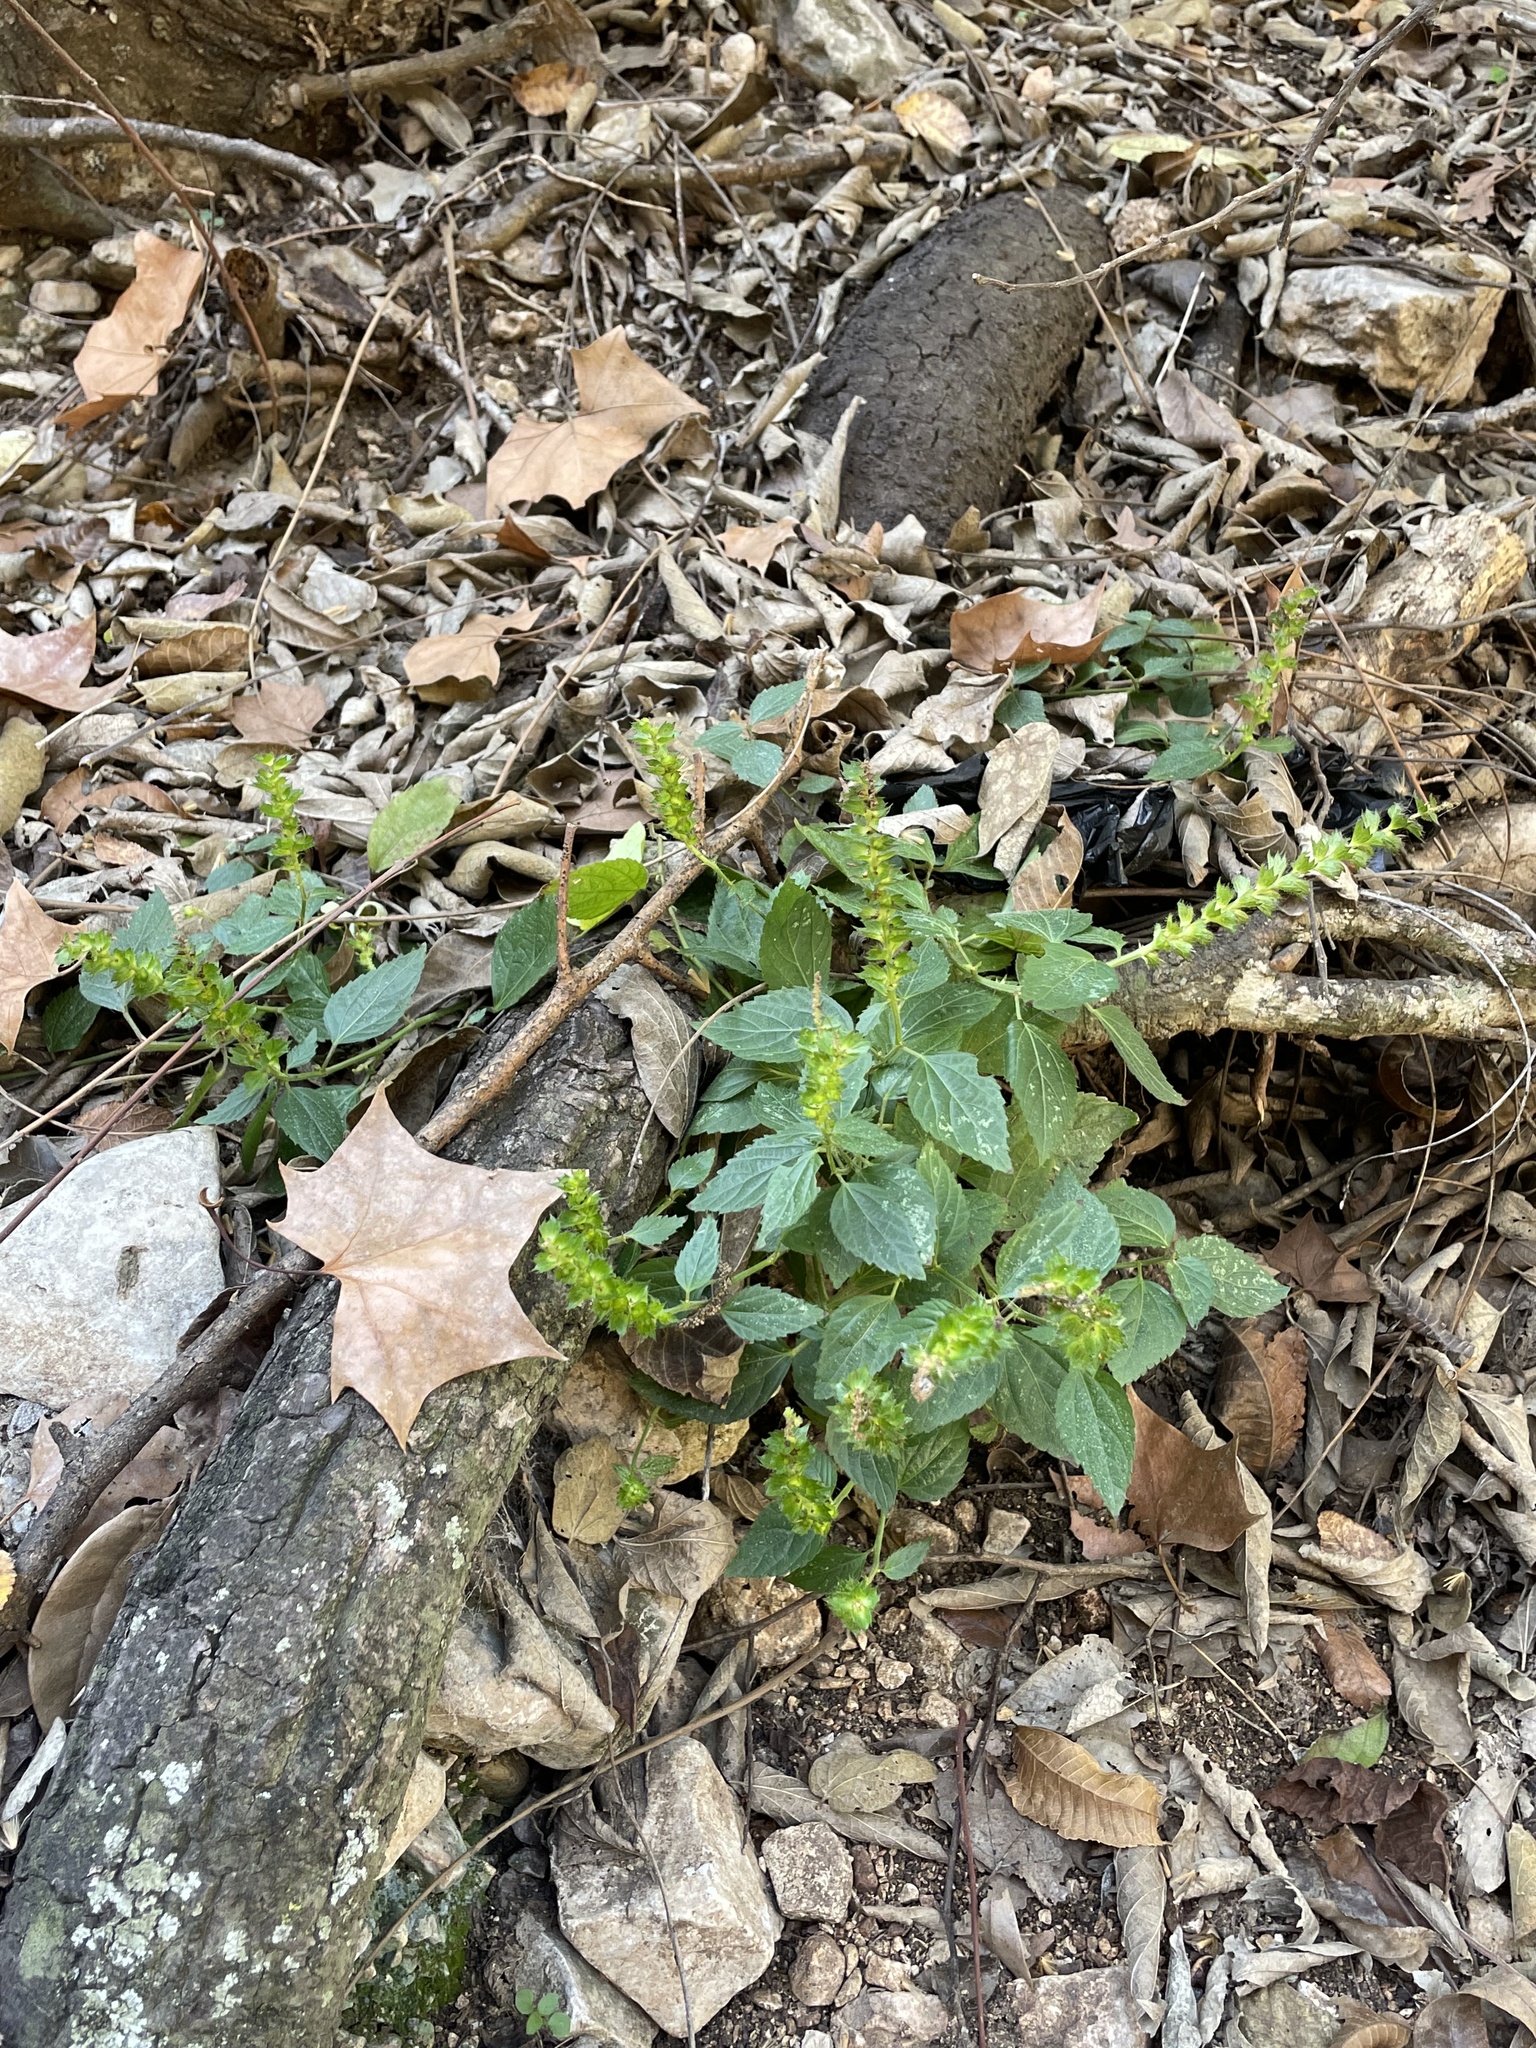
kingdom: Plantae
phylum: Tracheophyta
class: Magnoliopsida
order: Malpighiales
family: Euphorbiaceae
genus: Acalypha
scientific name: Acalypha phleoides
